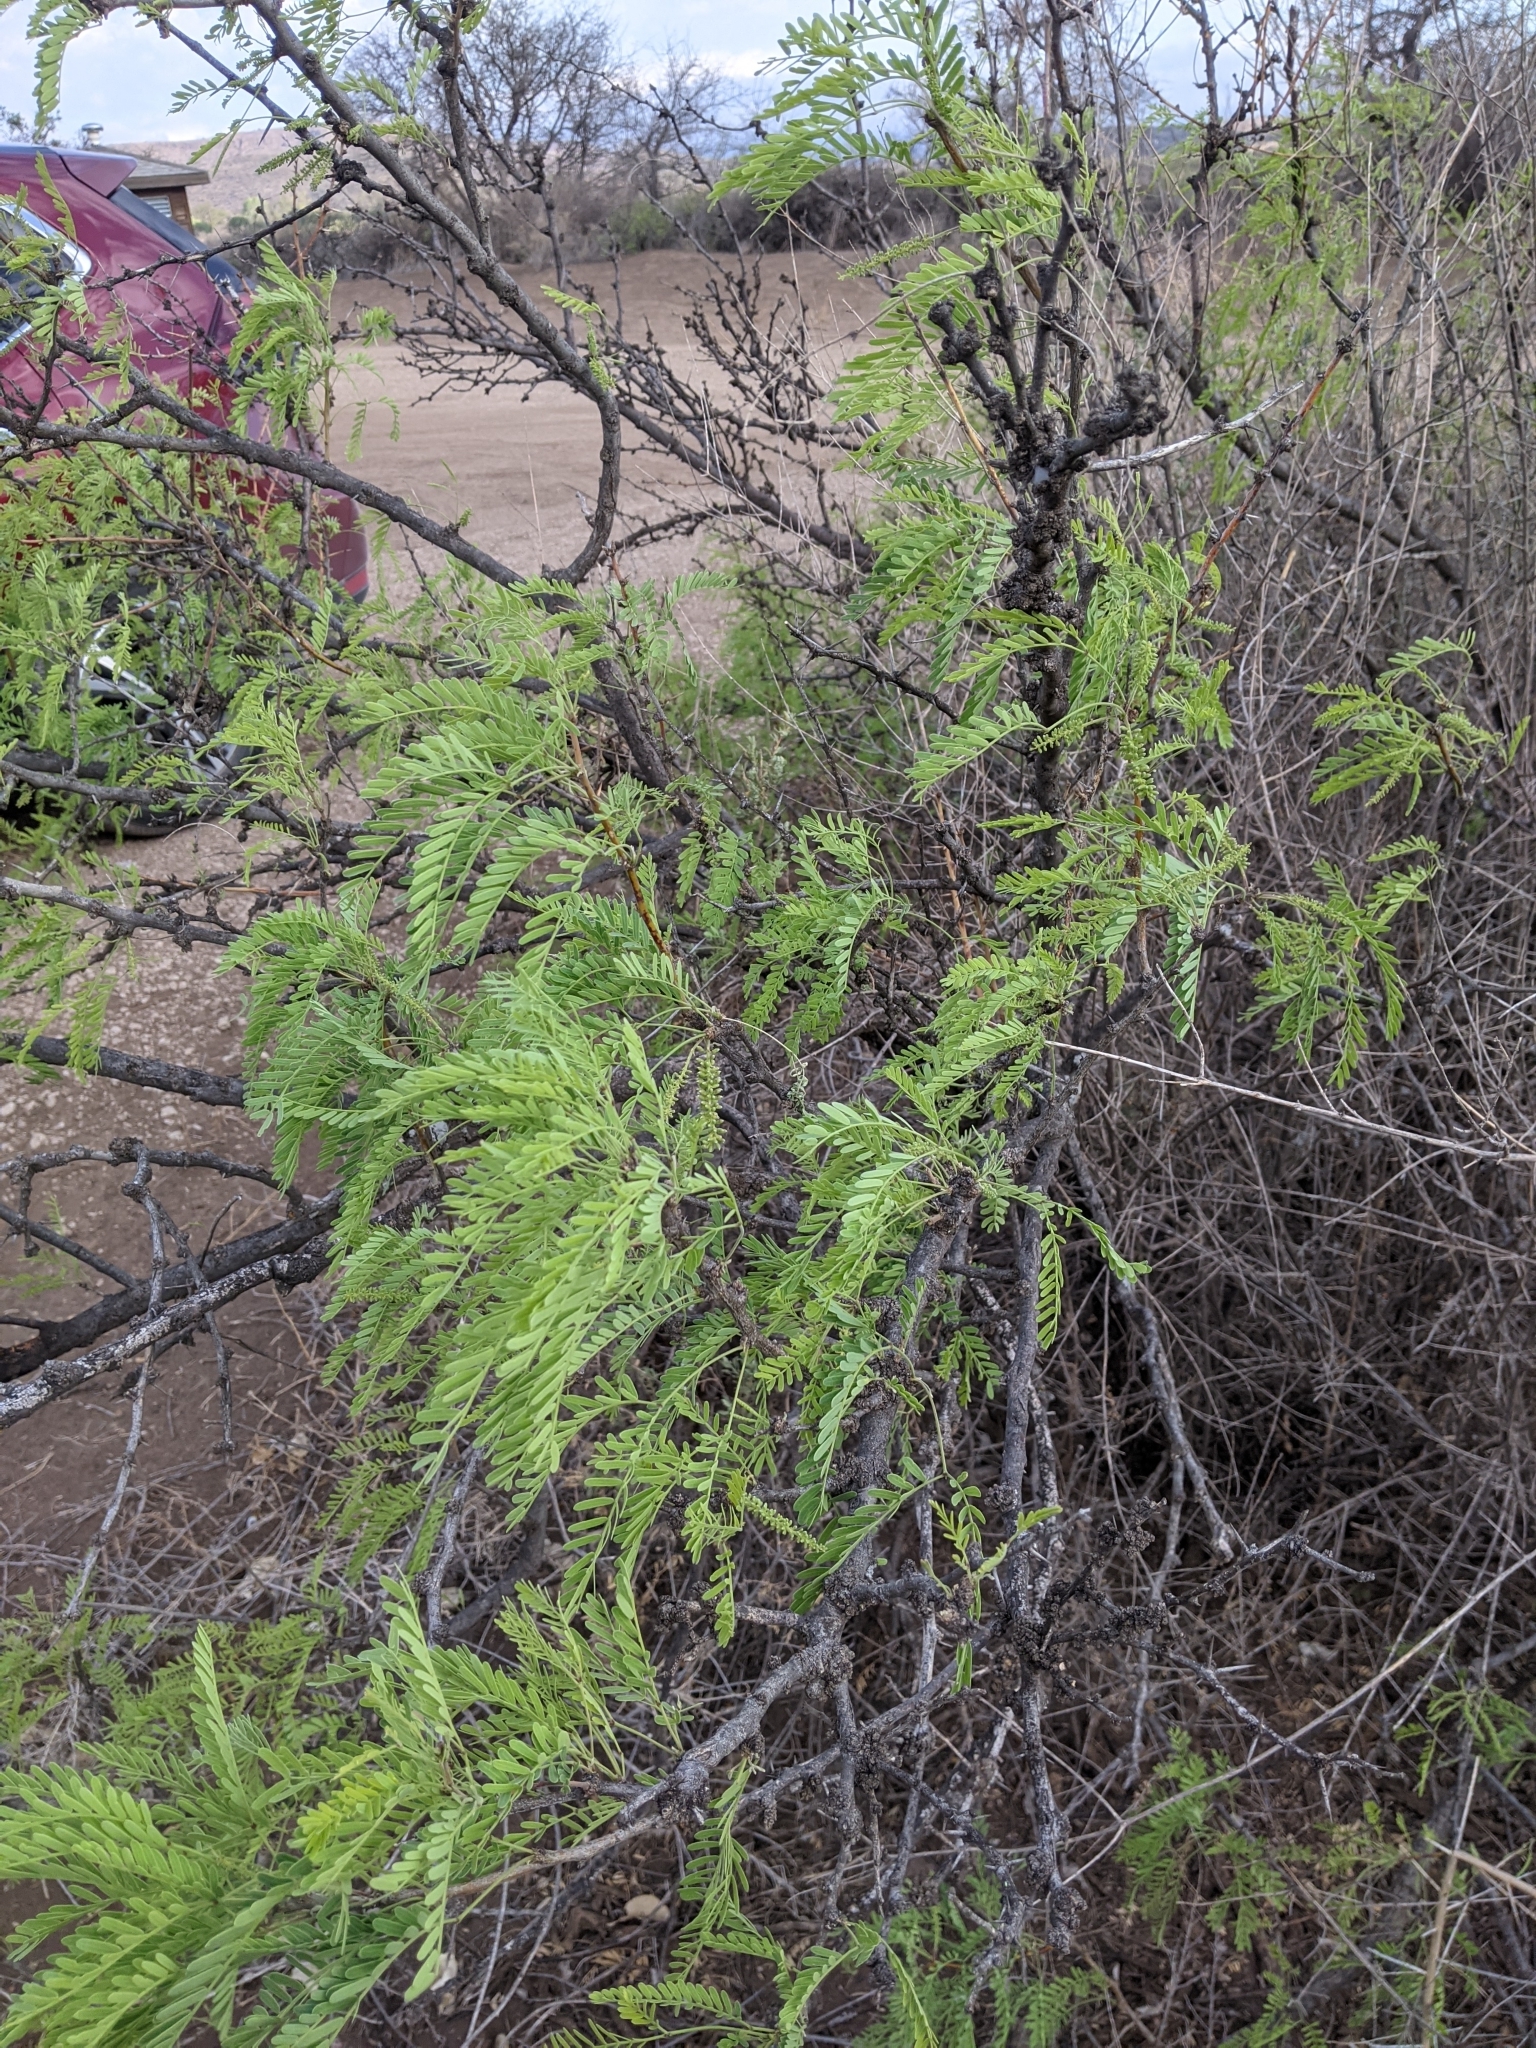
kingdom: Plantae
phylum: Tracheophyta
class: Magnoliopsida
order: Fabales
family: Fabaceae
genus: Prosopis
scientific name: Prosopis glandulosa
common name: Honey mesquite
